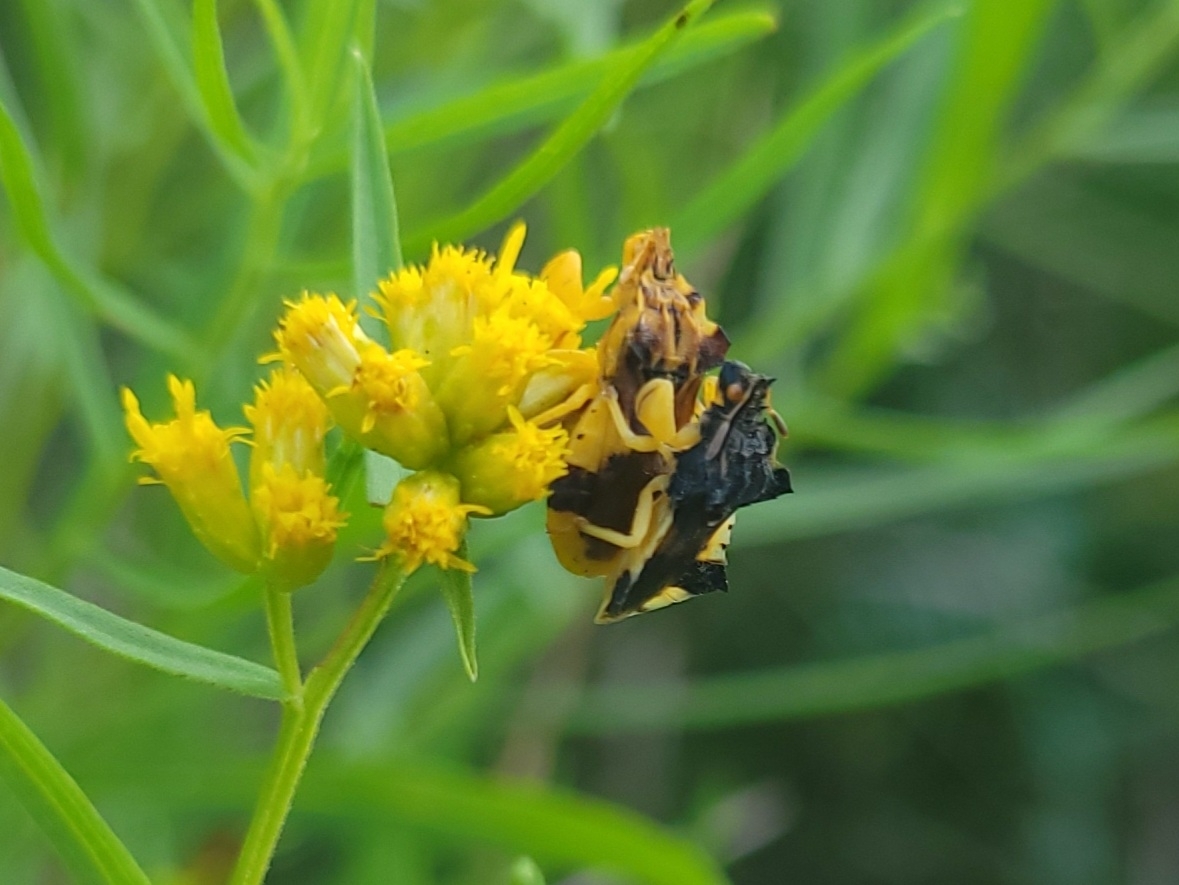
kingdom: Animalia
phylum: Arthropoda
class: Insecta
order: Hemiptera
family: Reduviidae
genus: Phymata
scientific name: Phymata americana
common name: Jagged ambush bug
